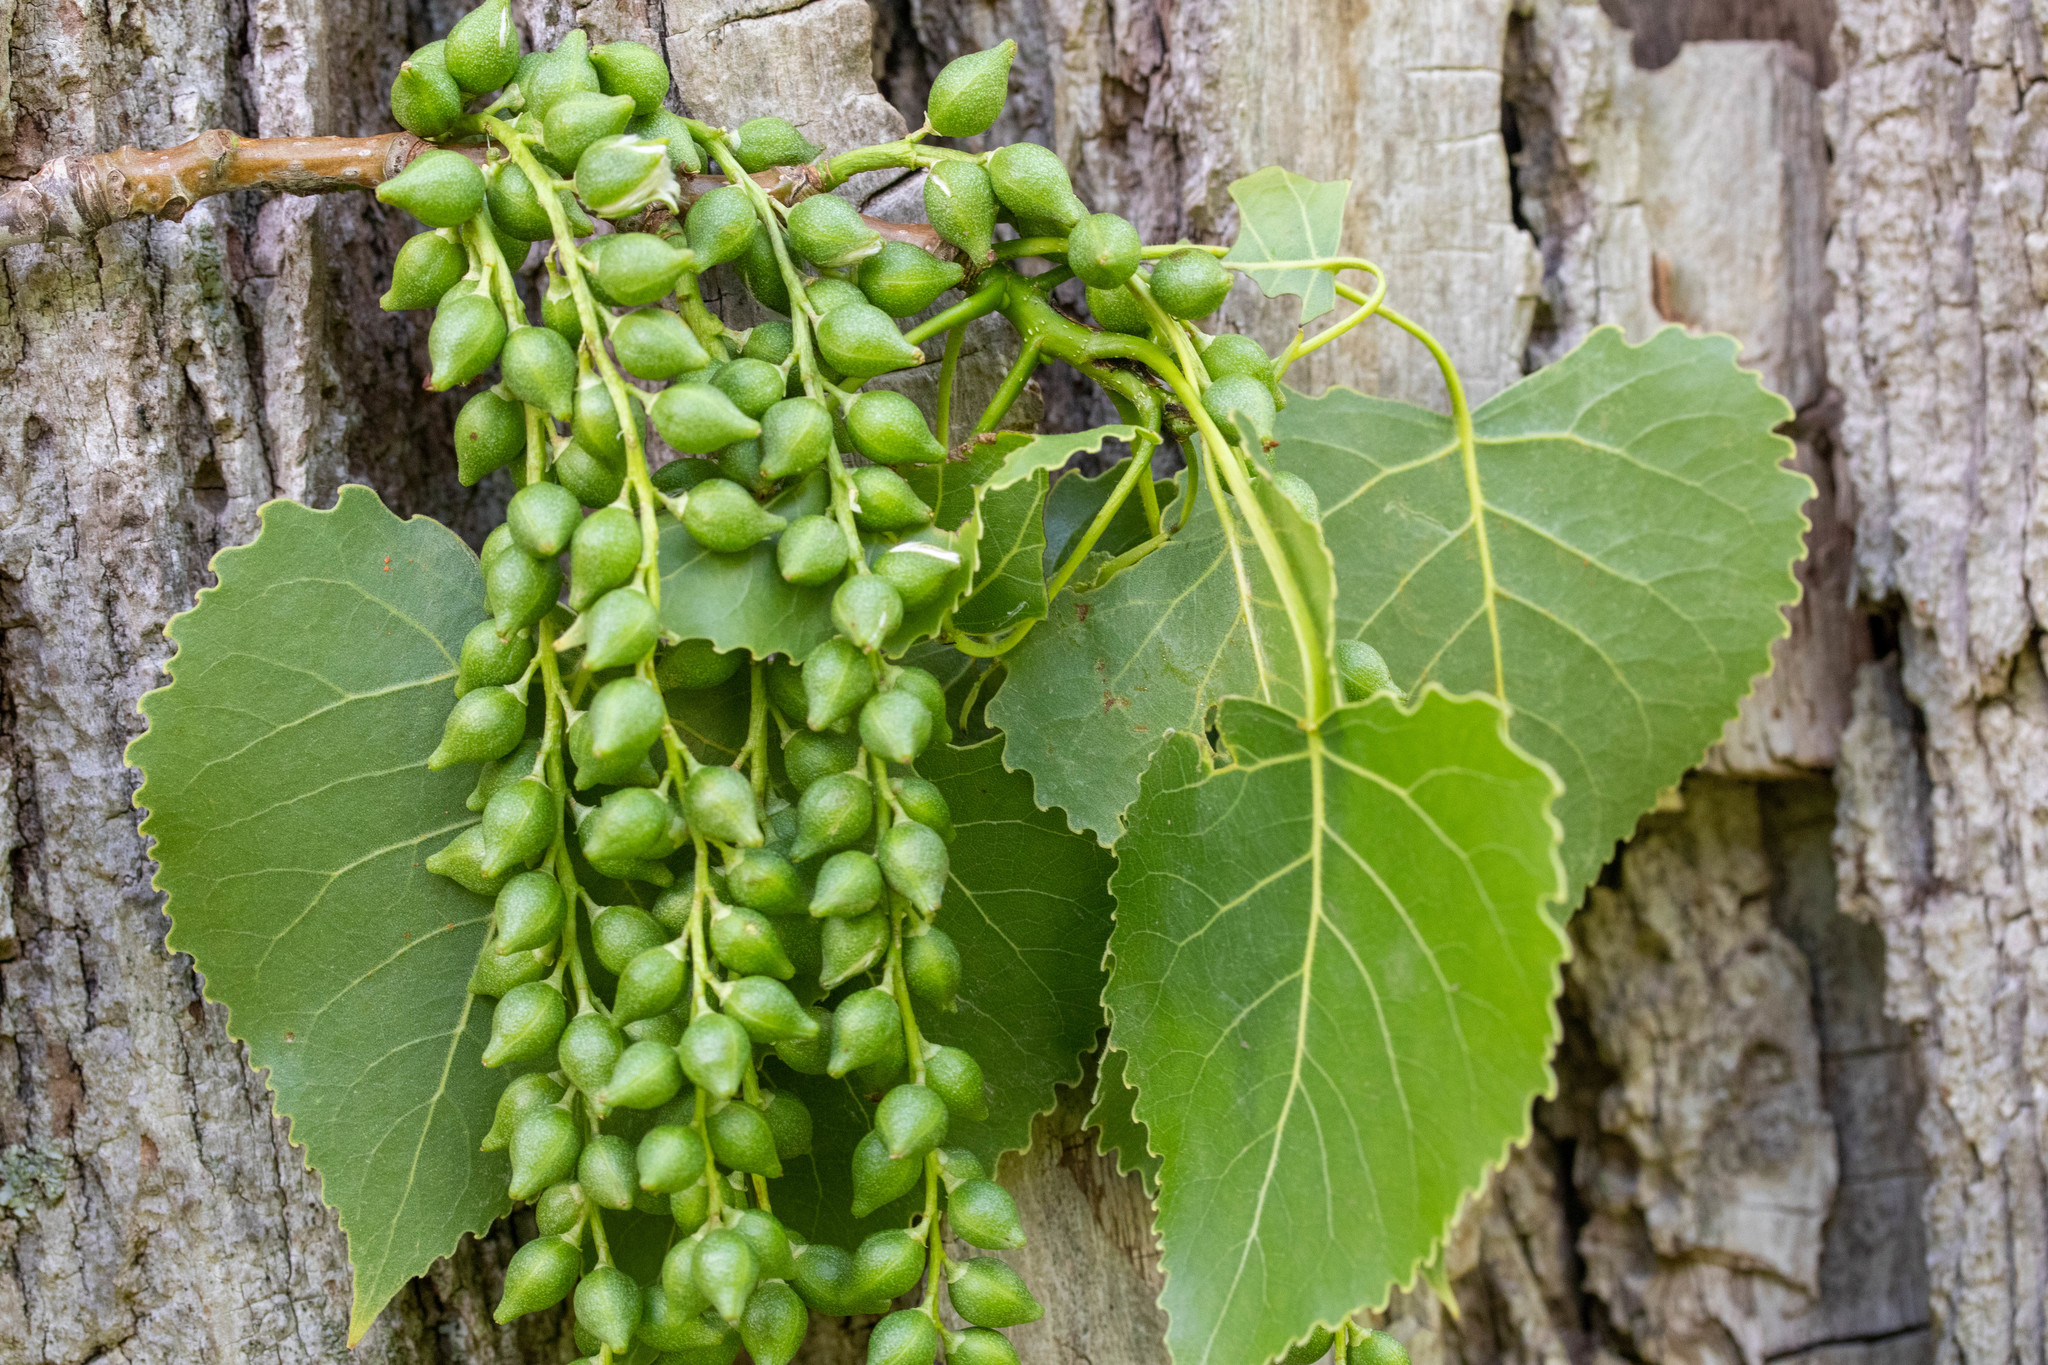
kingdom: Plantae
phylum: Tracheophyta
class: Magnoliopsida
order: Malpighiales
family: Salicaceae
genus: Populus
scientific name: Populus deltoides
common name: Eastern cottonwood
